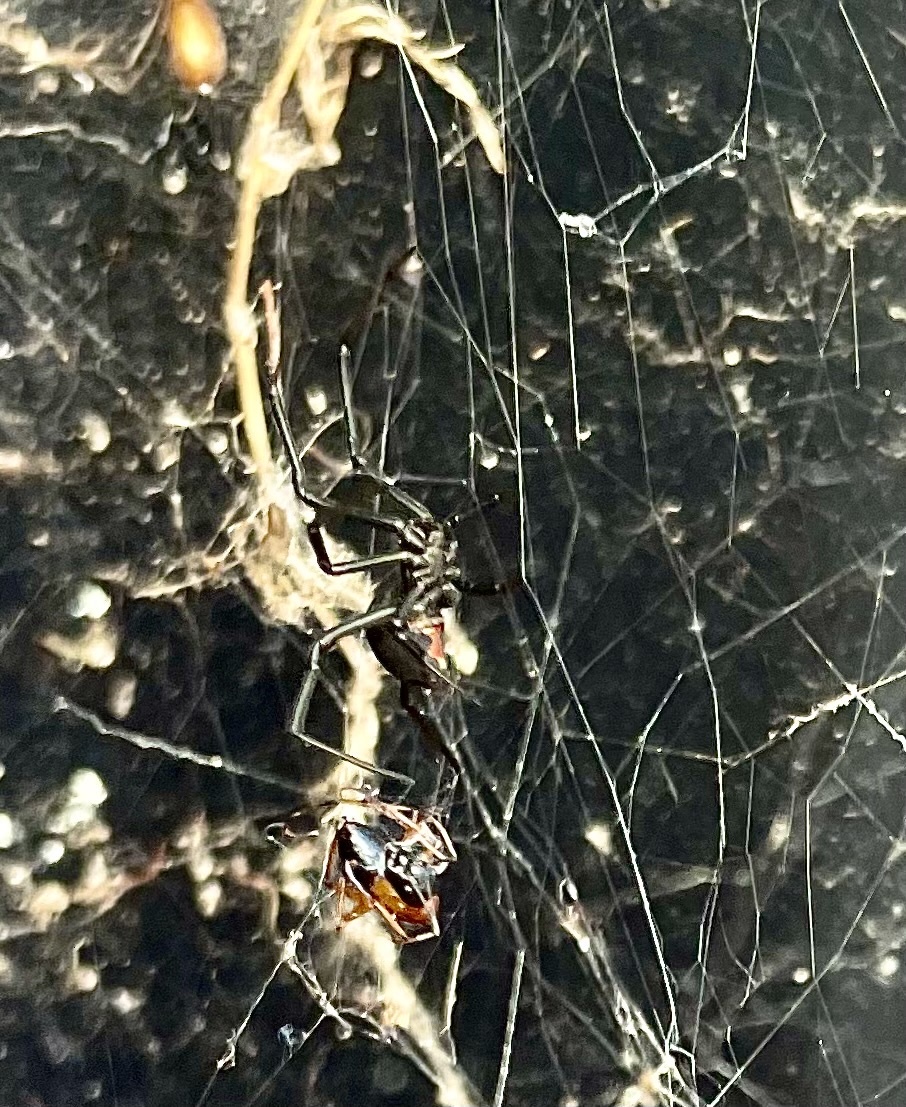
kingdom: Animalia
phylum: Arthropoda
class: Arachnida
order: Araneae
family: Theridiidae
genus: Latrodectus
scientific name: Latrodectus hasselti
